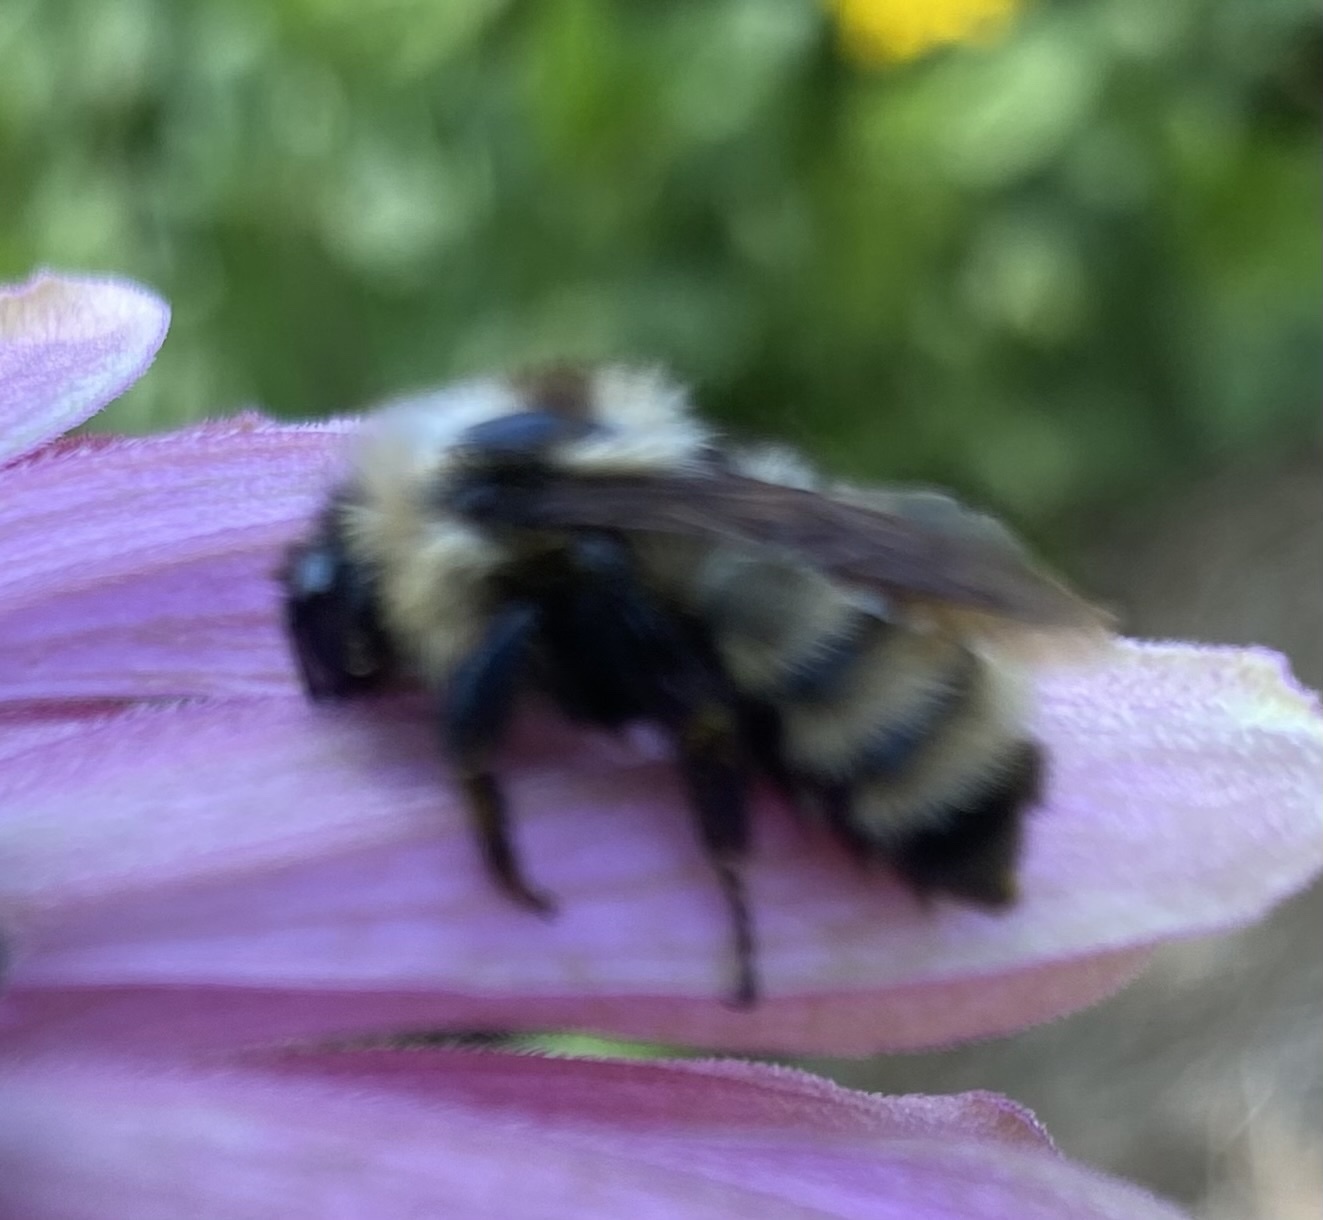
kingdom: Animalia
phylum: Arthropoda
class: Insecta
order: Hymenoptera
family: Apidae
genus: Bombus
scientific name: Bombus fervidus
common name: Yellow bumble bee
